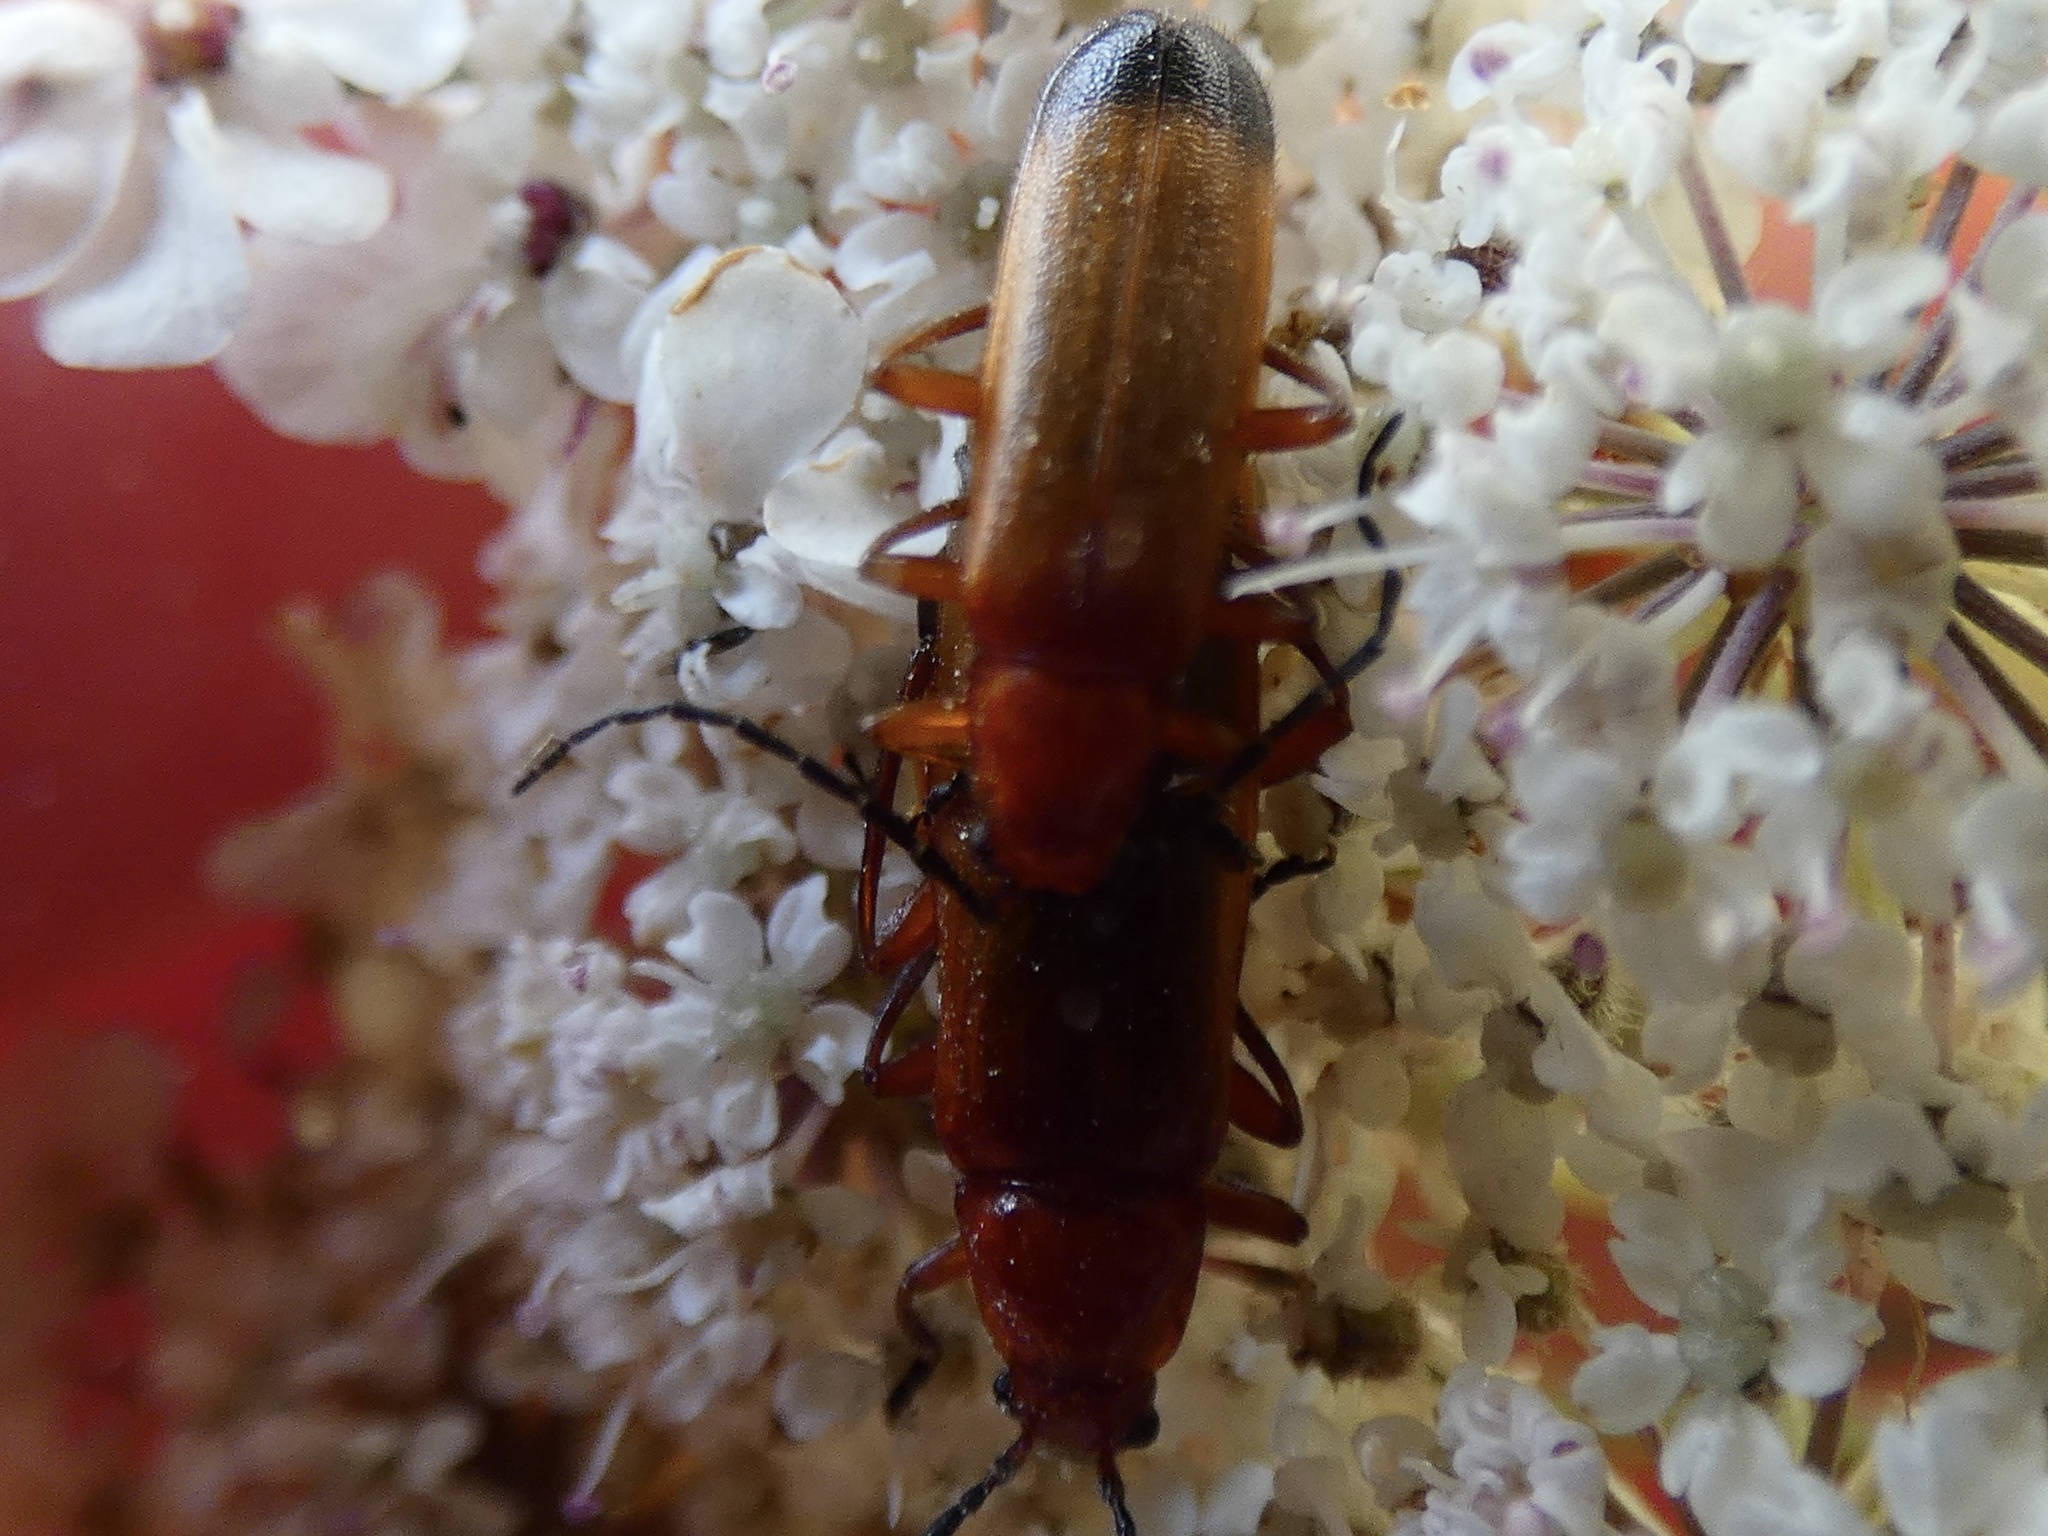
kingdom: Animalia
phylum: Arthropoda
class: Insecta
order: Coleoptera
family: Cantharidae
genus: Rhagonycha
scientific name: Rhagonycha fulva
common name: Common red soldier beetle
